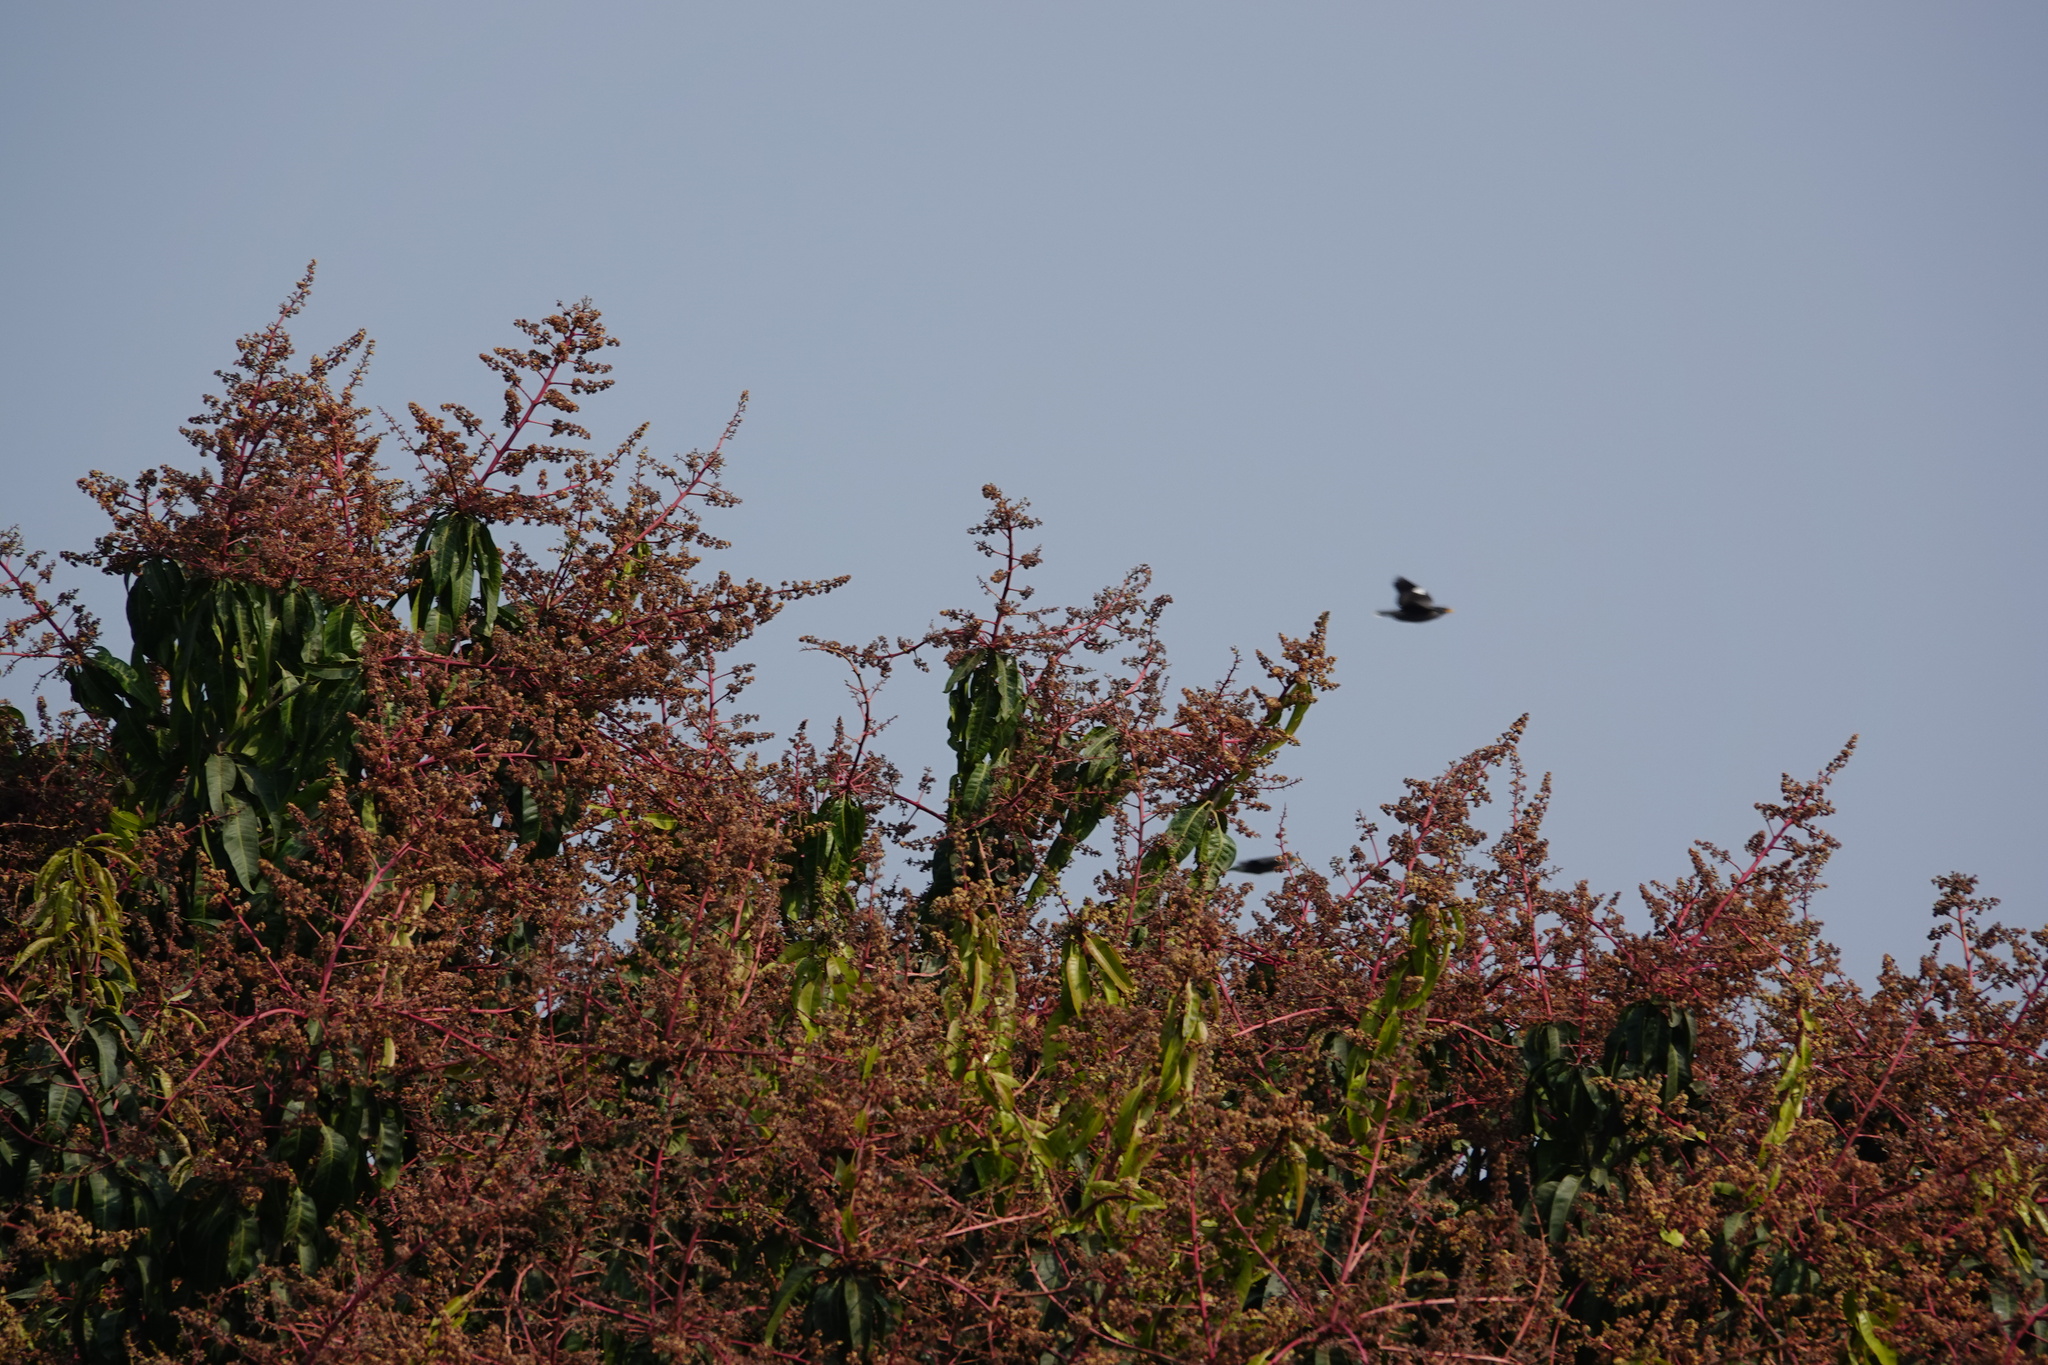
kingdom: Animalia
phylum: Chordata
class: Aves
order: Passeriformes
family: Sturnidae
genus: Acridotheres
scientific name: Acridotheres javanicus
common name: Javan myna
